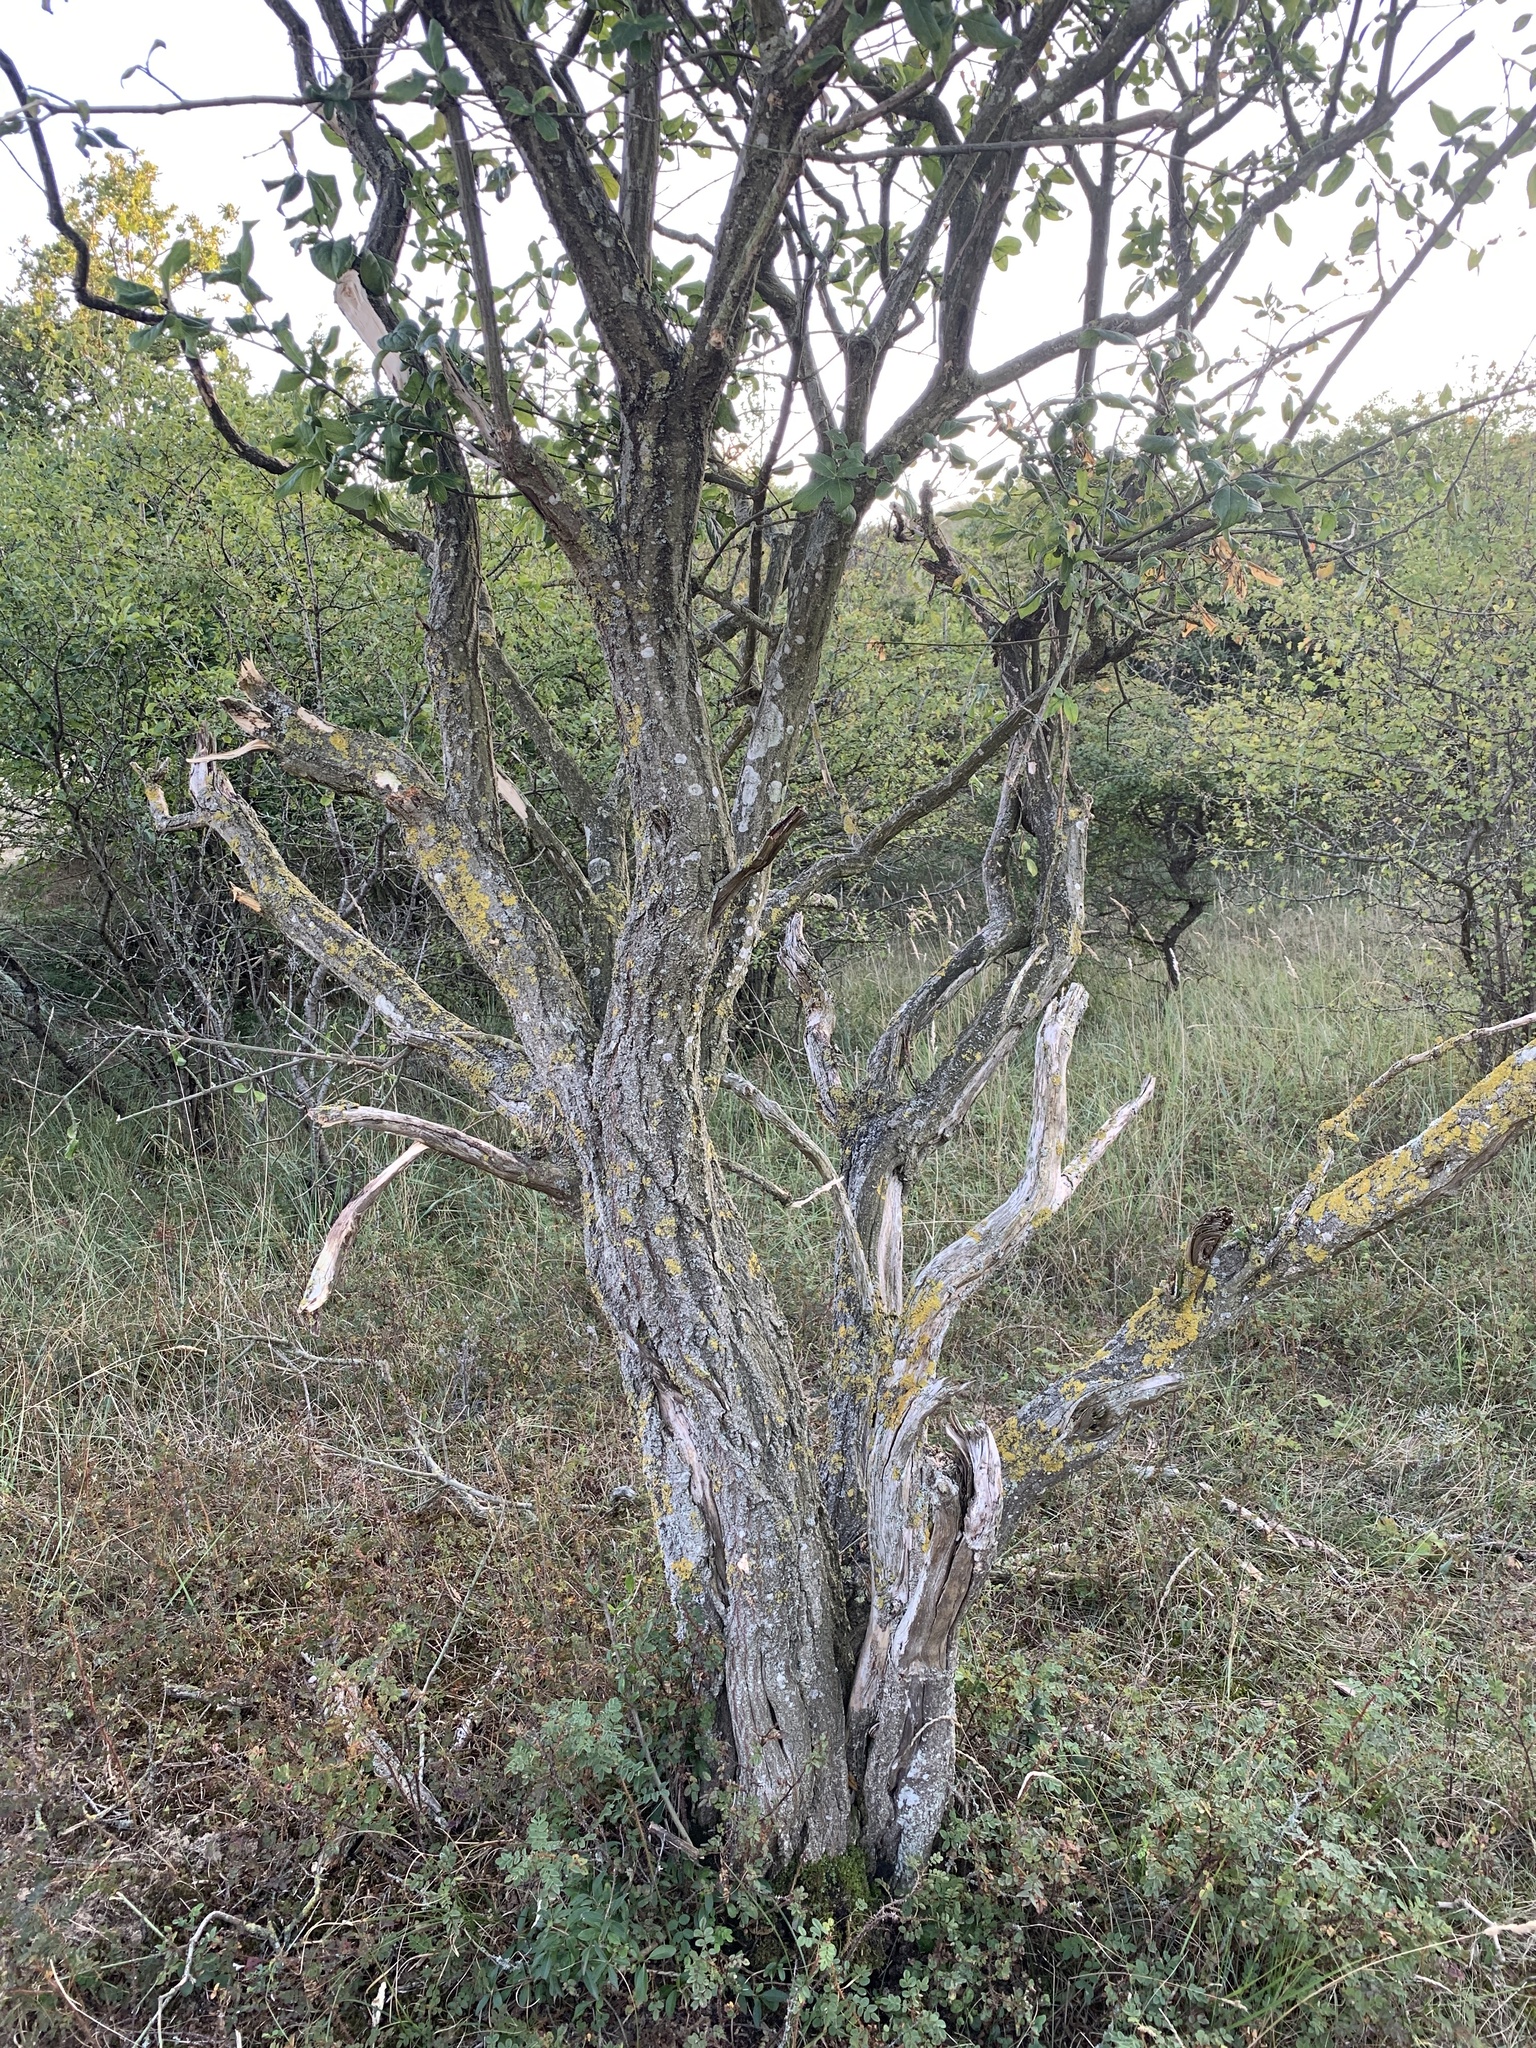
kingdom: Plantae
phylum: Tracheophyta
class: Magnoliopsida
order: Celastrales
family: Celastraceae
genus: Euonymus
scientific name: Euonymus europaeus
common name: Spindle
